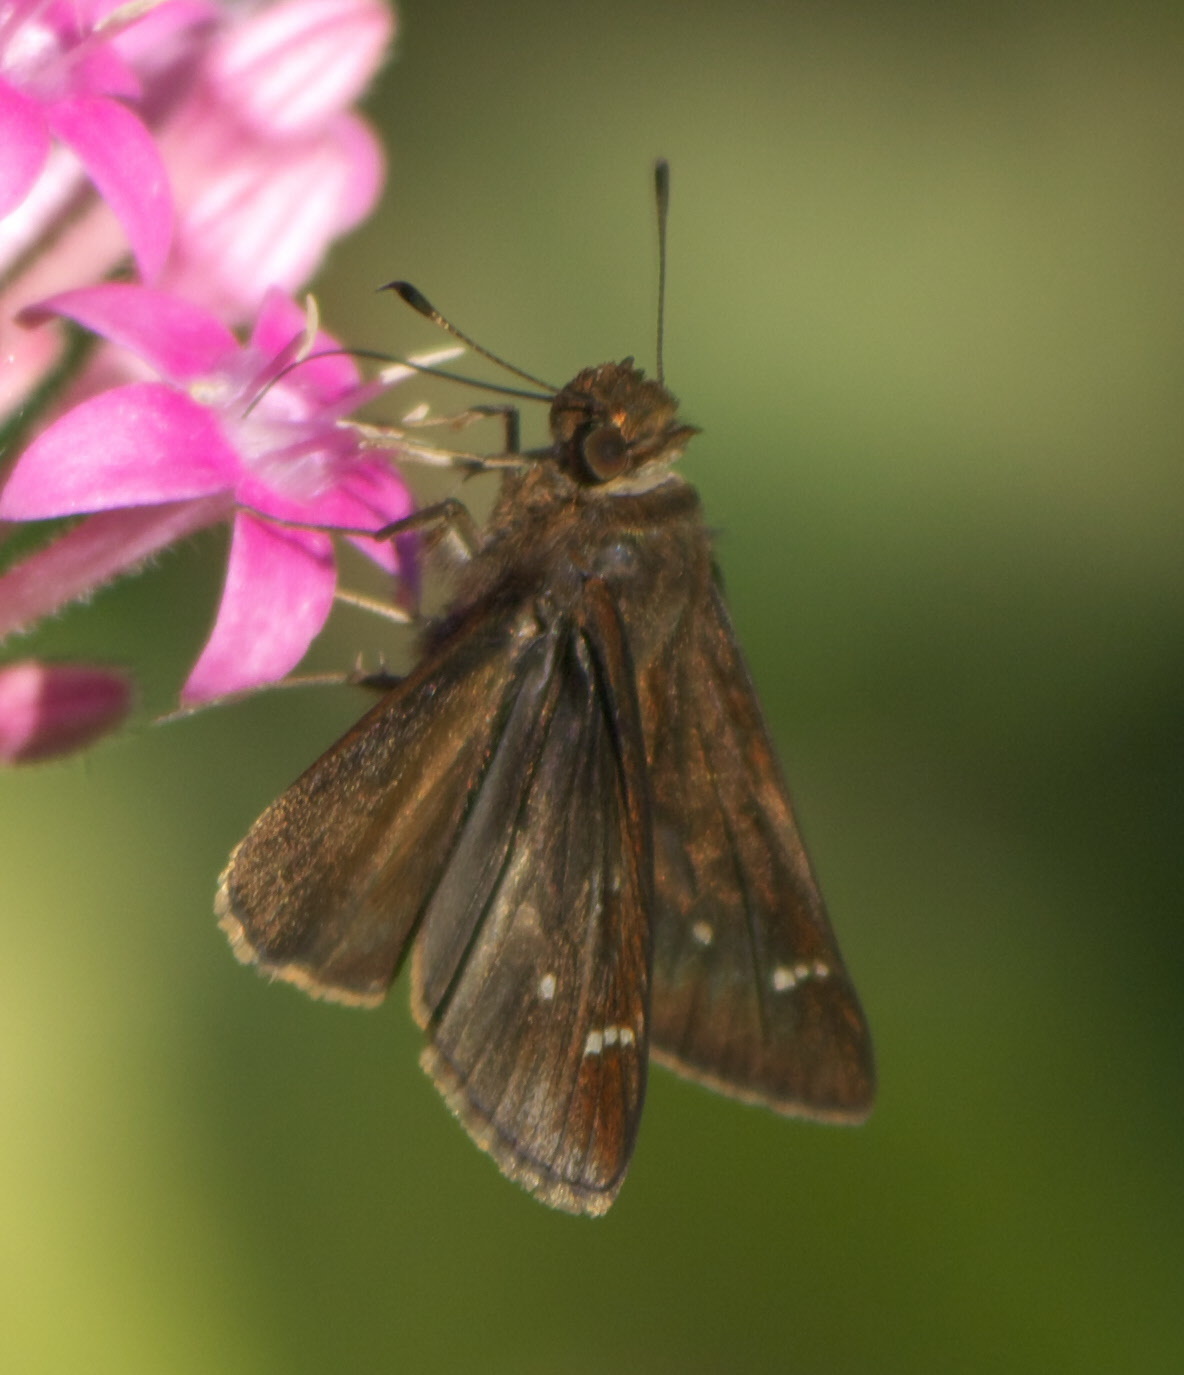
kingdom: Animalia
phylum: Arthropoda
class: Insecta
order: Lepidoptera
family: Hesperiidae
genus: Lerema
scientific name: Lerema accius
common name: Clouded skipper
